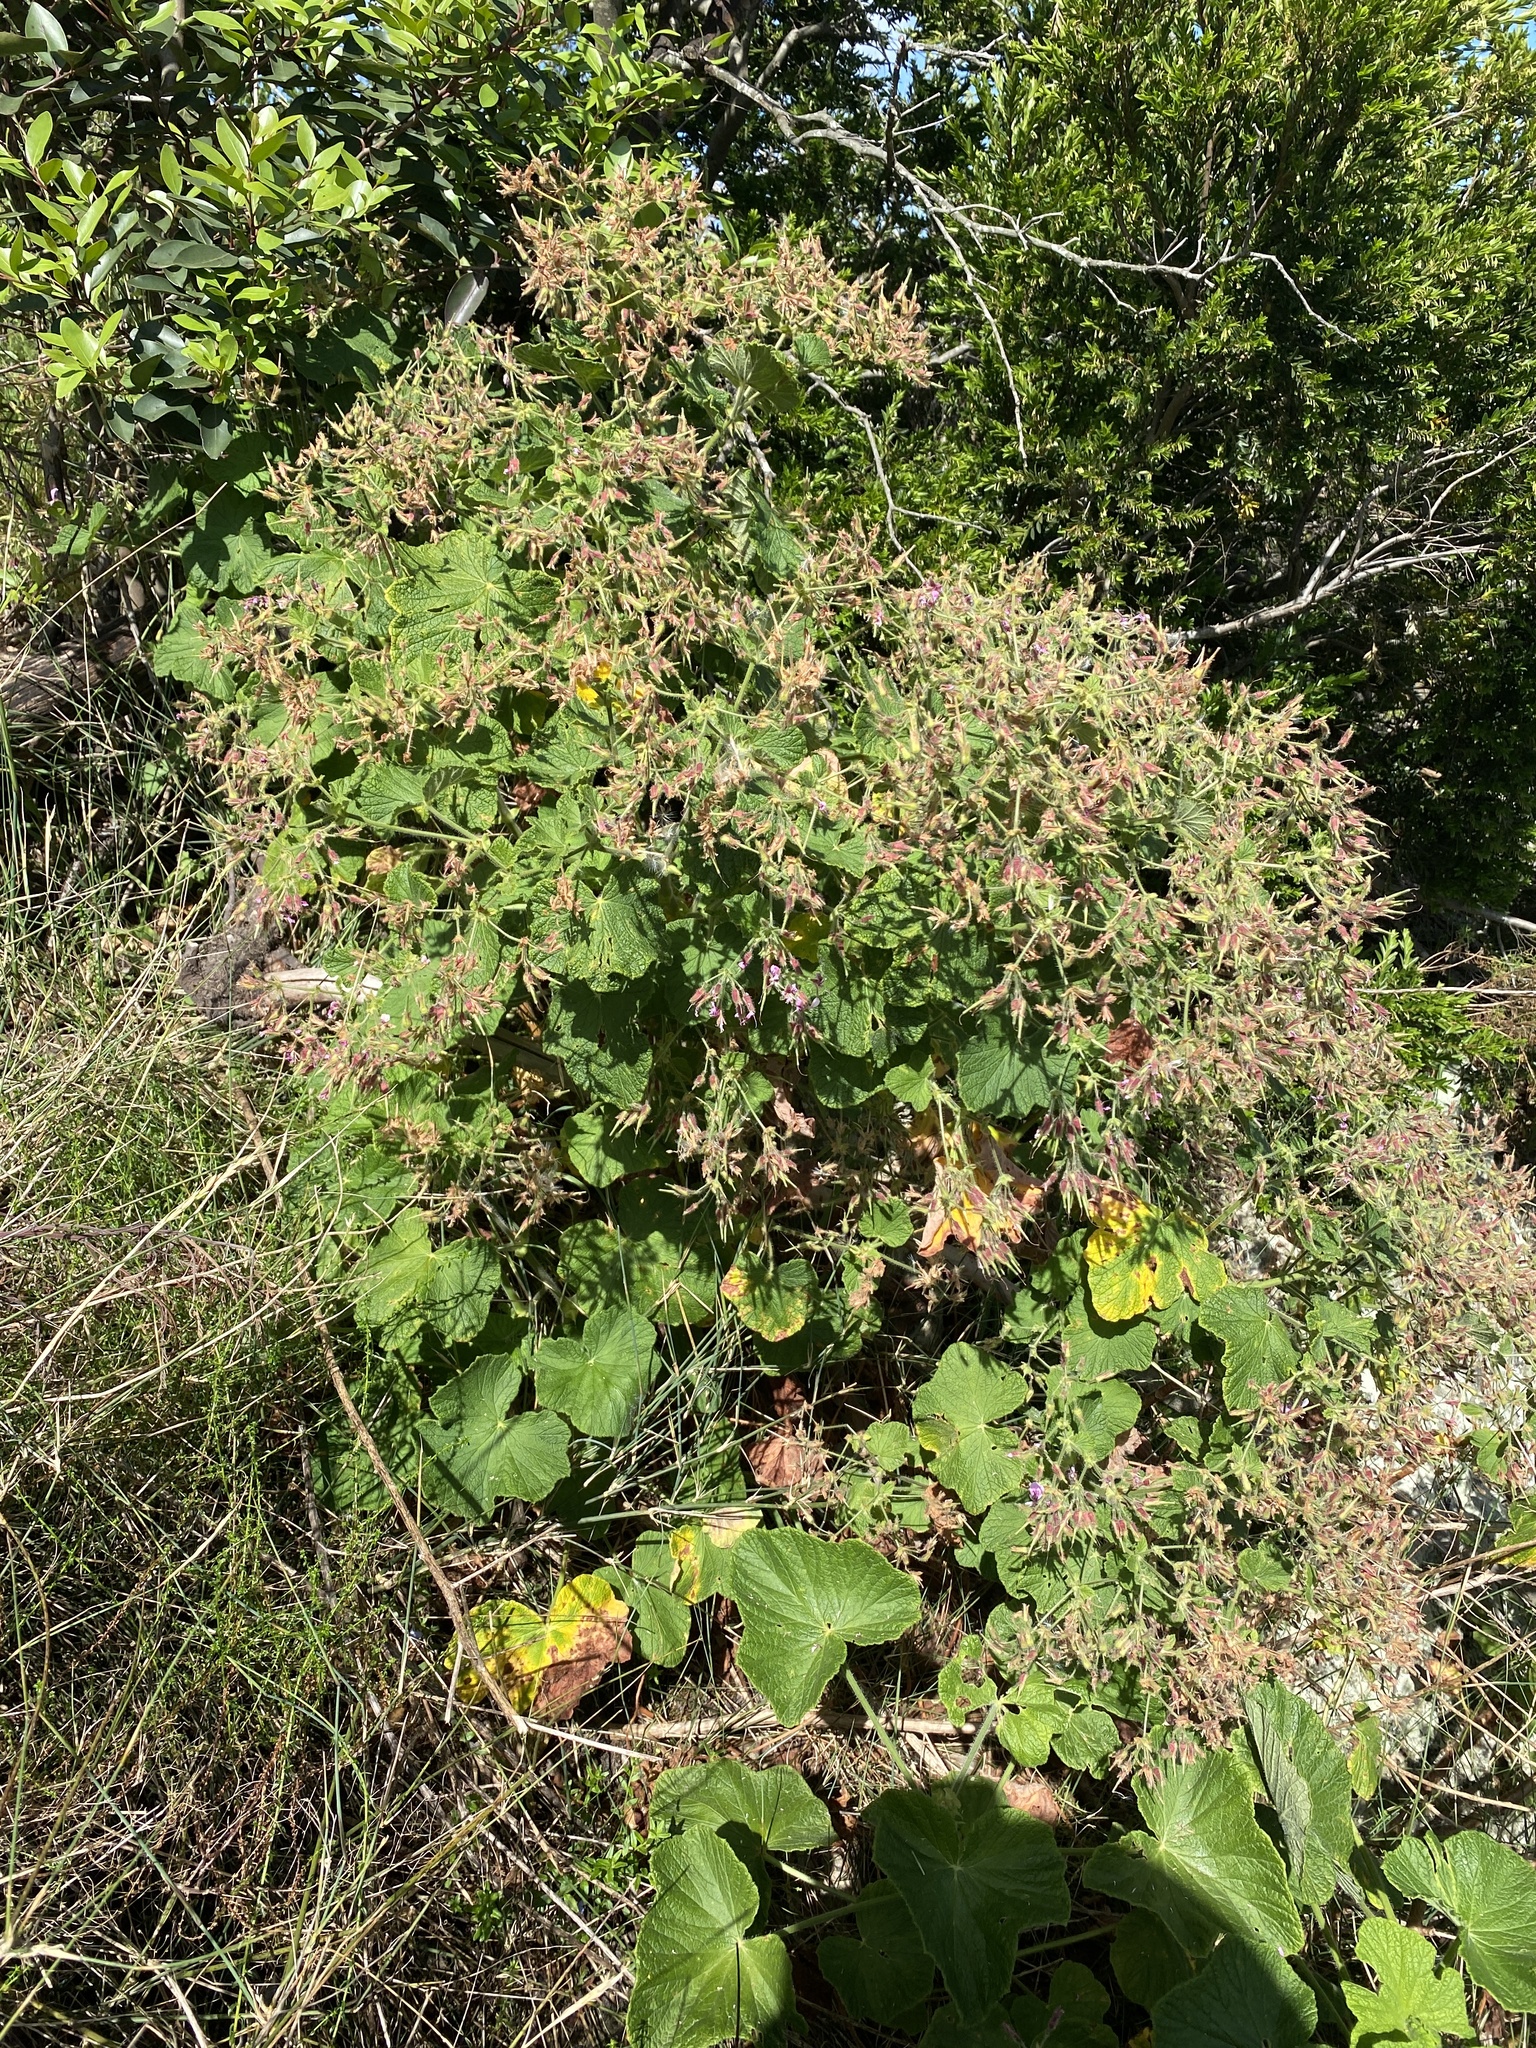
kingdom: Plantae
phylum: Tracheophyta
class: Magnoliopsida
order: Geraniales
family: Geraniaceae
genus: Pelargonium
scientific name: Pelargonium papilionaceum
